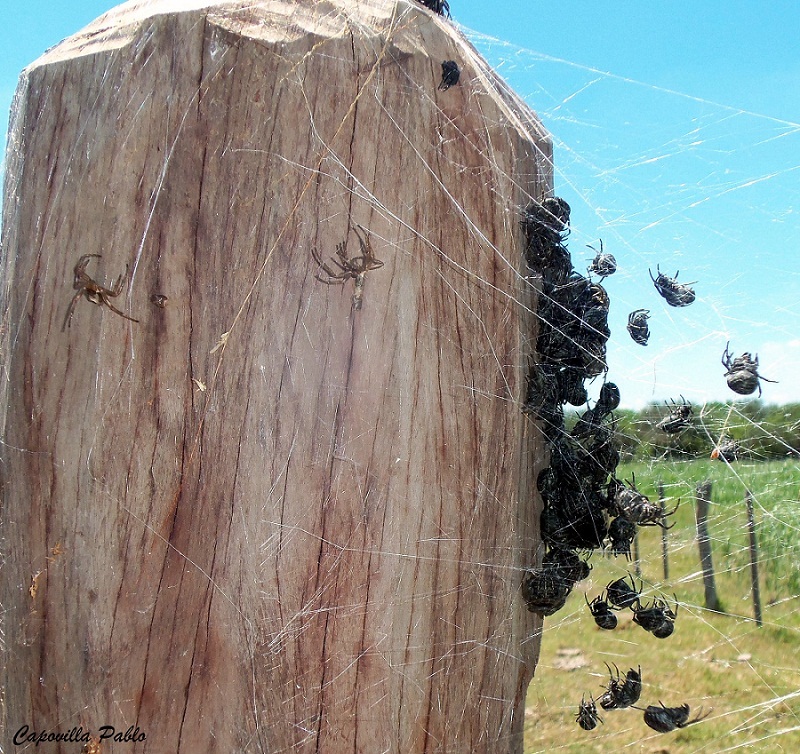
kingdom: Animalia
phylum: Arthropoda
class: Arachnida
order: Araneae
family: Araneidae
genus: Parawixia
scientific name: Parawixia bistriata
